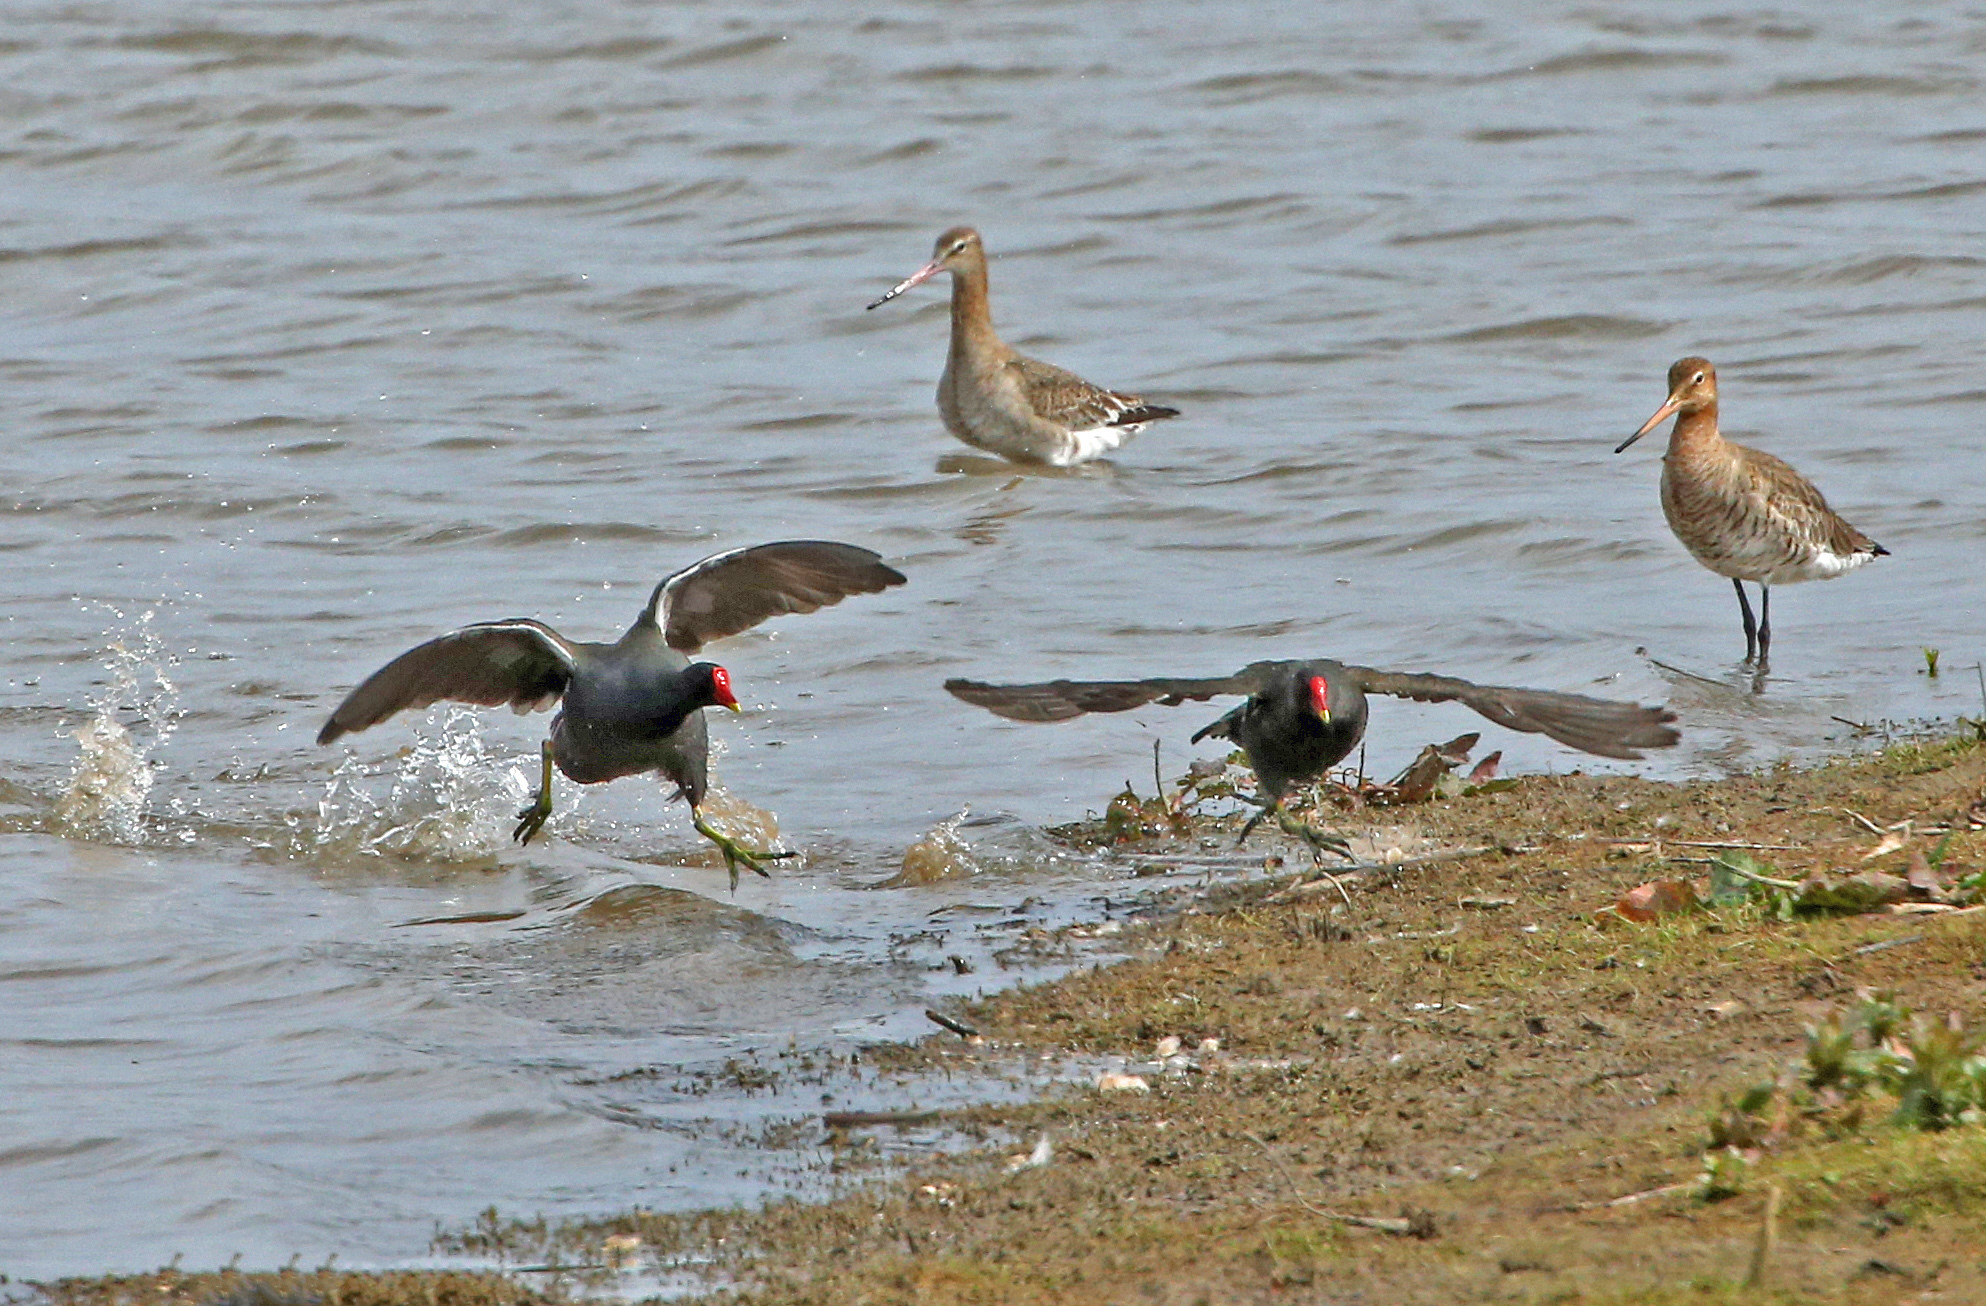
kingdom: Animalia
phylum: Chordata
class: Aves
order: Gruiformes
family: Rallidae
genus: Gallinula
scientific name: Gallinula chloropus
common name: Common moorhen
